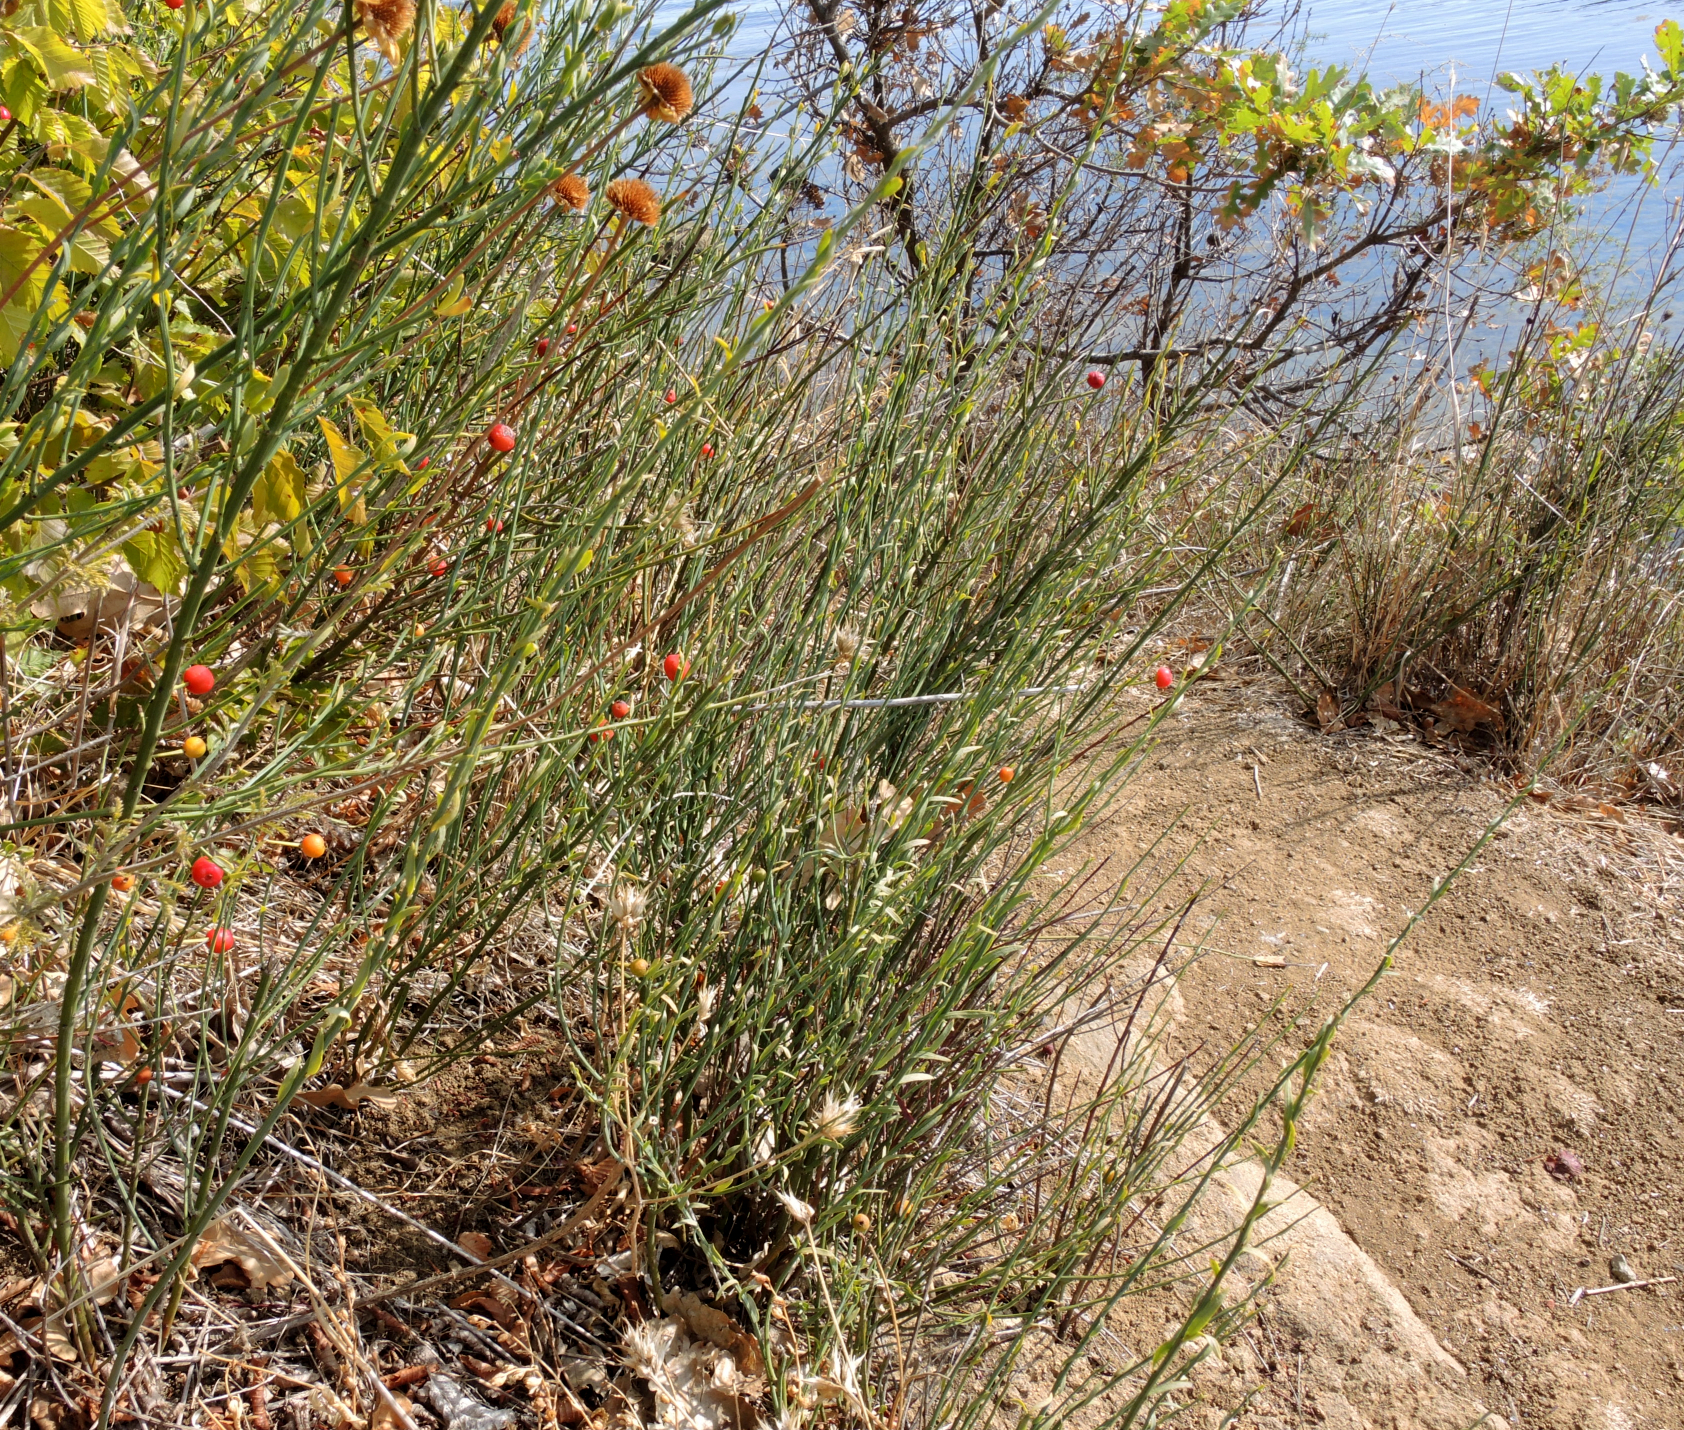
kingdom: Plantae
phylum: Tracheophyta
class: Magnoliopsida
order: Santalales
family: Santalaceae
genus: Osyris
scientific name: Osyris alba
